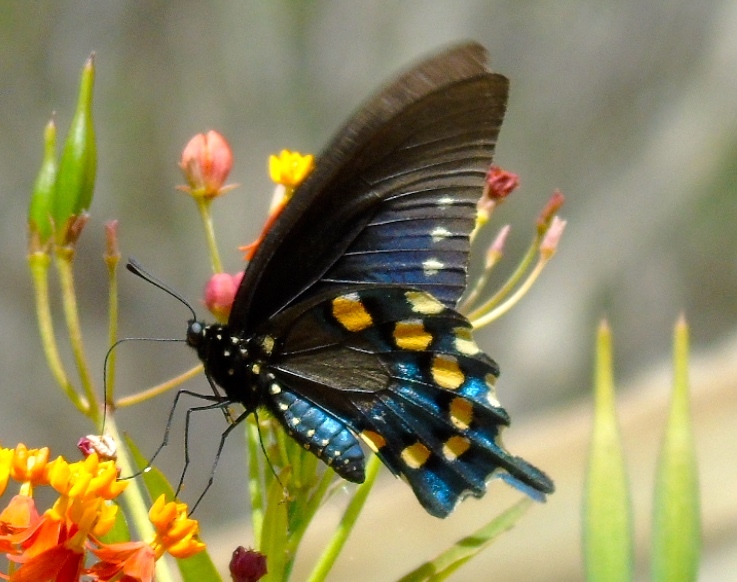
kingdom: Animalia
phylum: Arthropoda
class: Insecta
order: Lepidoptera
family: Papilionidae
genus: Battus
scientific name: Battus philenor
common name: Pipevine swallowtail
